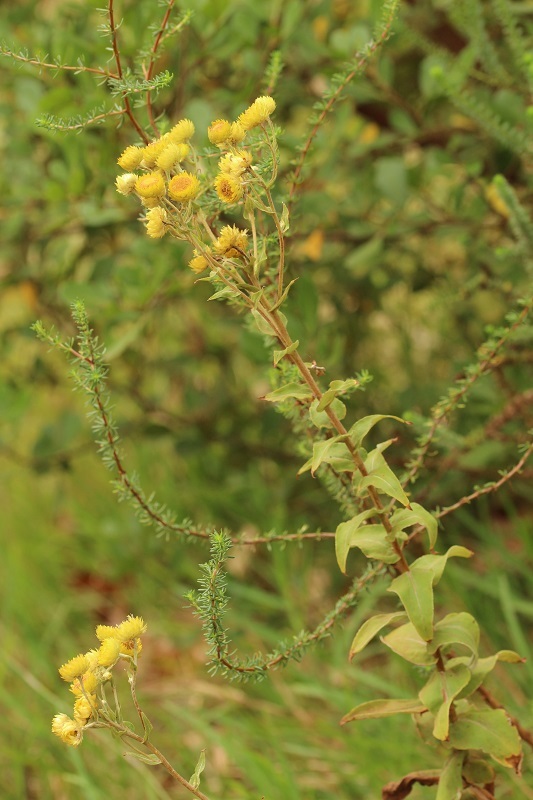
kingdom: Plantae
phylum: Tracheophyta
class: Magnoliopsida
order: Asterales
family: Asteraceae
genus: Helichrysum
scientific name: Helichrysum foetidum
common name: Stinking everlasting
